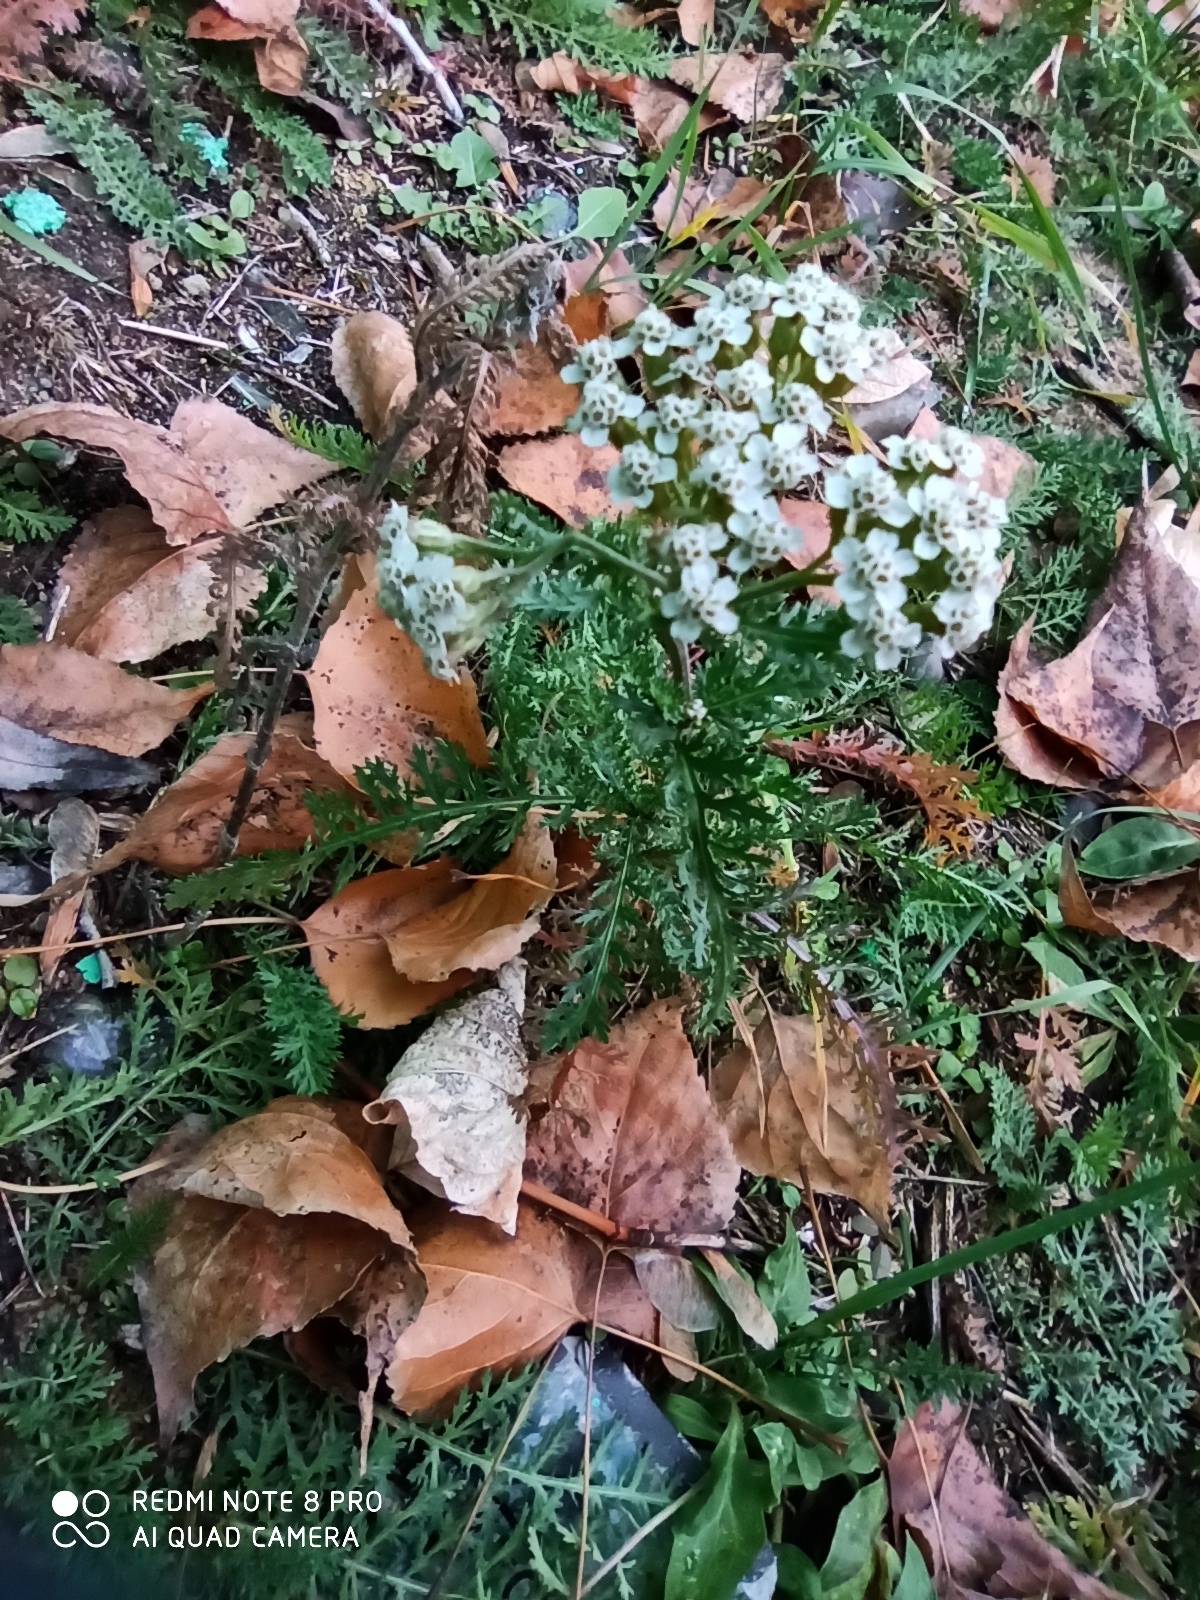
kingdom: Plantae
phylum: Tracheophyta
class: Magnoliopsida
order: Asterales
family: Asteraceae
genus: Achillea
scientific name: Achillea millefolium
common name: Yarrow
